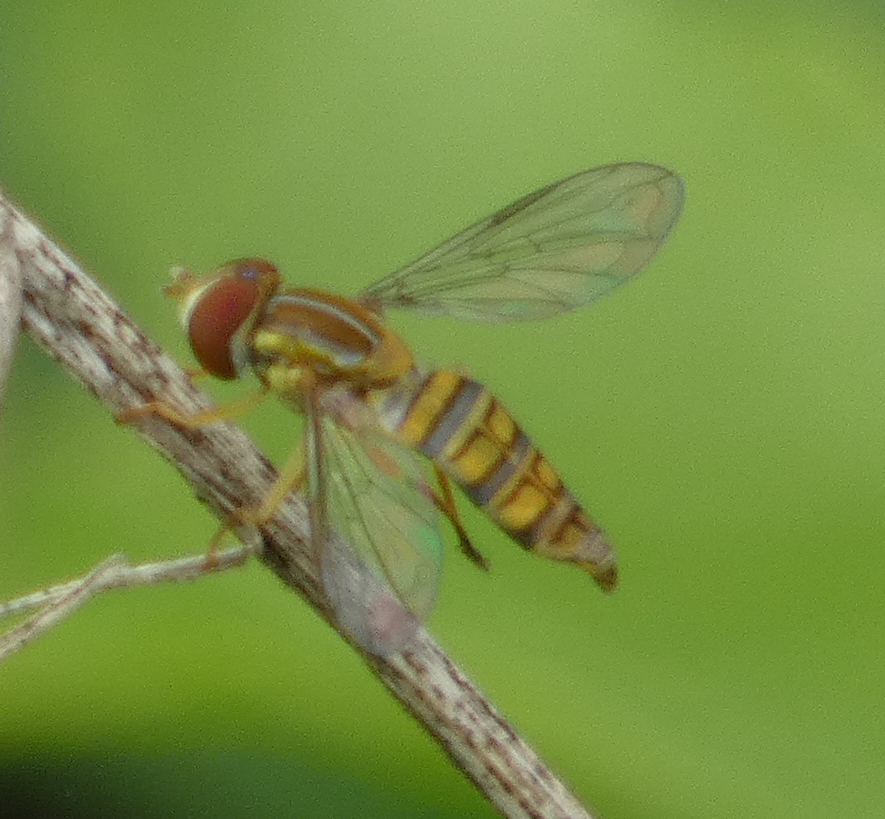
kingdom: Animalia
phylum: Arthropoda
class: Insecta
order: Diptera
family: Syrphidae
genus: Toxomerus
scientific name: Toxomerus politus
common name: Maize calligrapher
